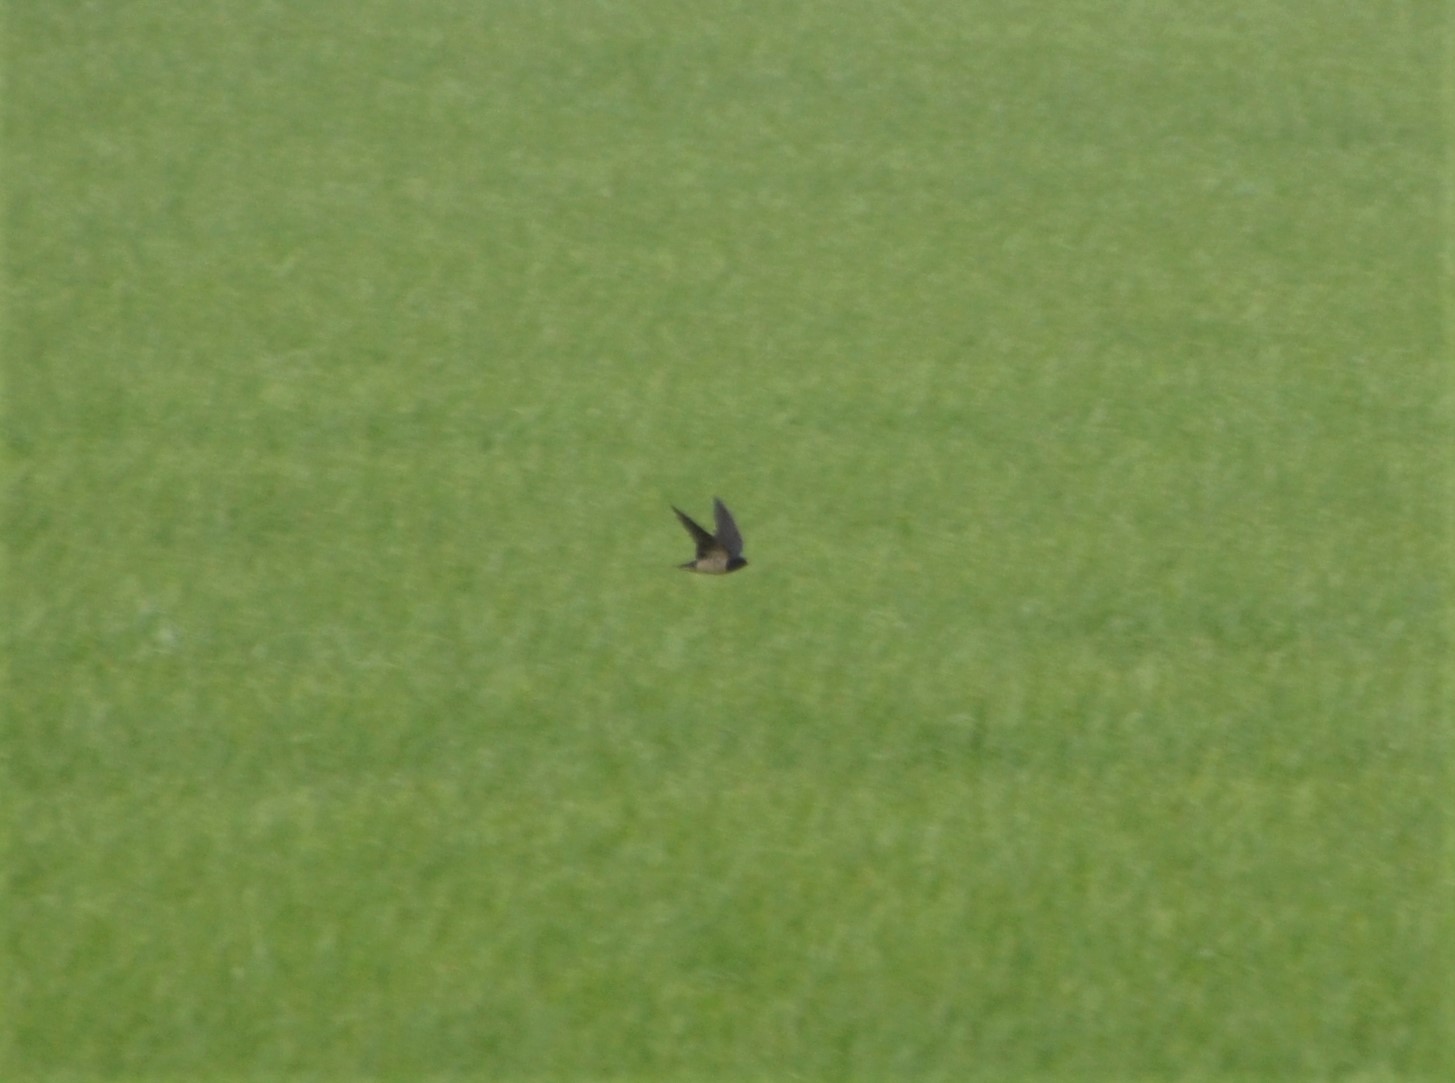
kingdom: Animalia
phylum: Chordata
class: Aves
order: Passeriformes
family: Hirundinidae
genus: Hirundo
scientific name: Hirundo rustica
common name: Barn swallow
